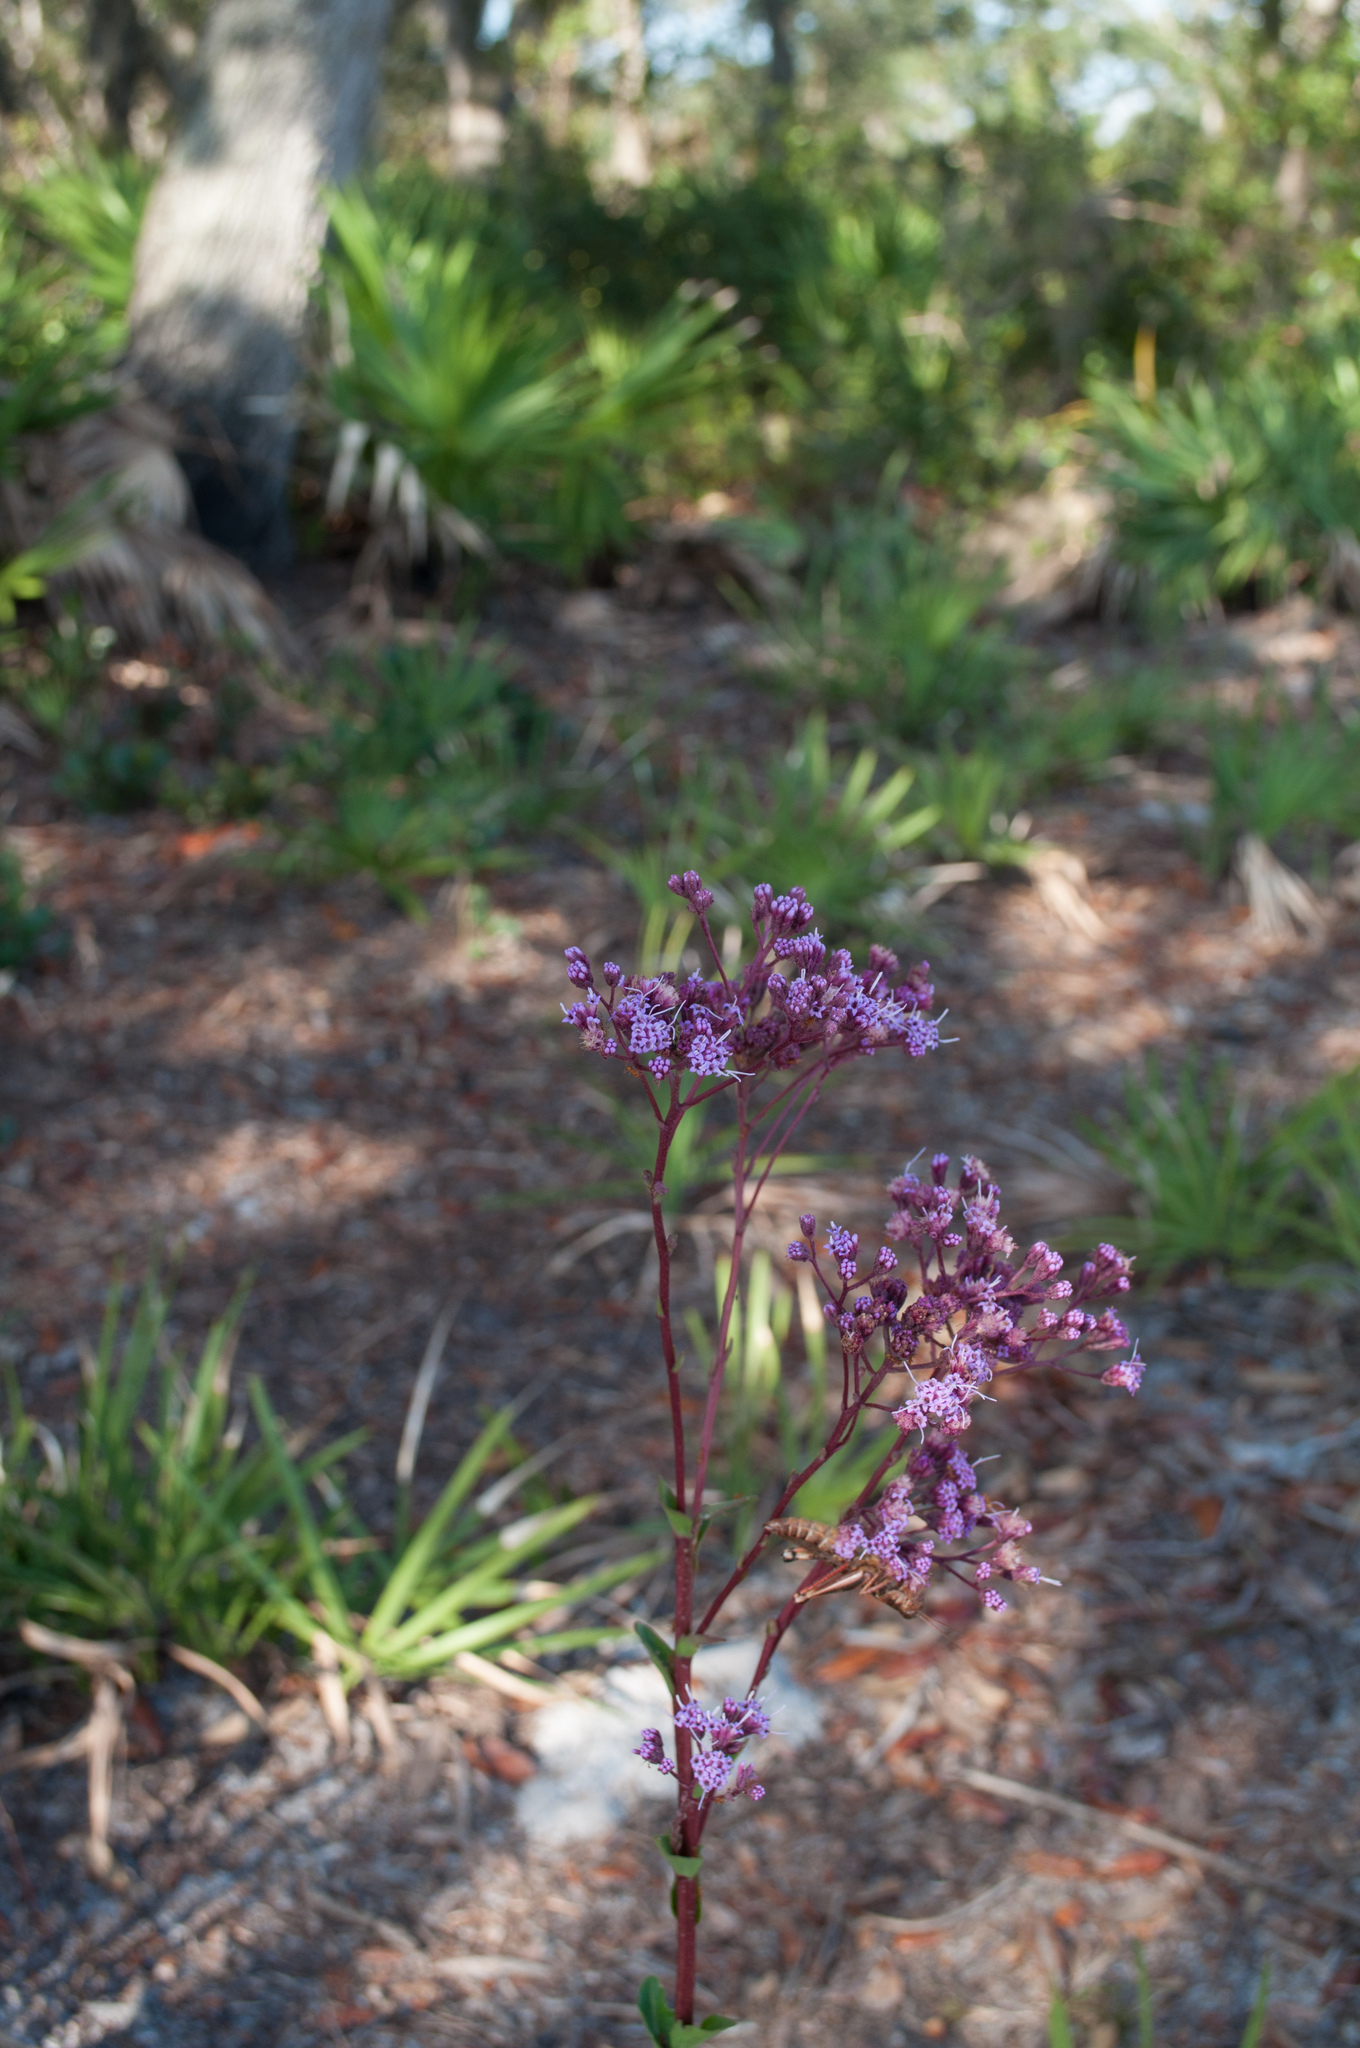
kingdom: Plantae
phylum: Tracheophyta
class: Magnoliopsida
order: Asterales
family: Asteraceae
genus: Carphephorus
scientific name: Carphephorus odoratissimus
